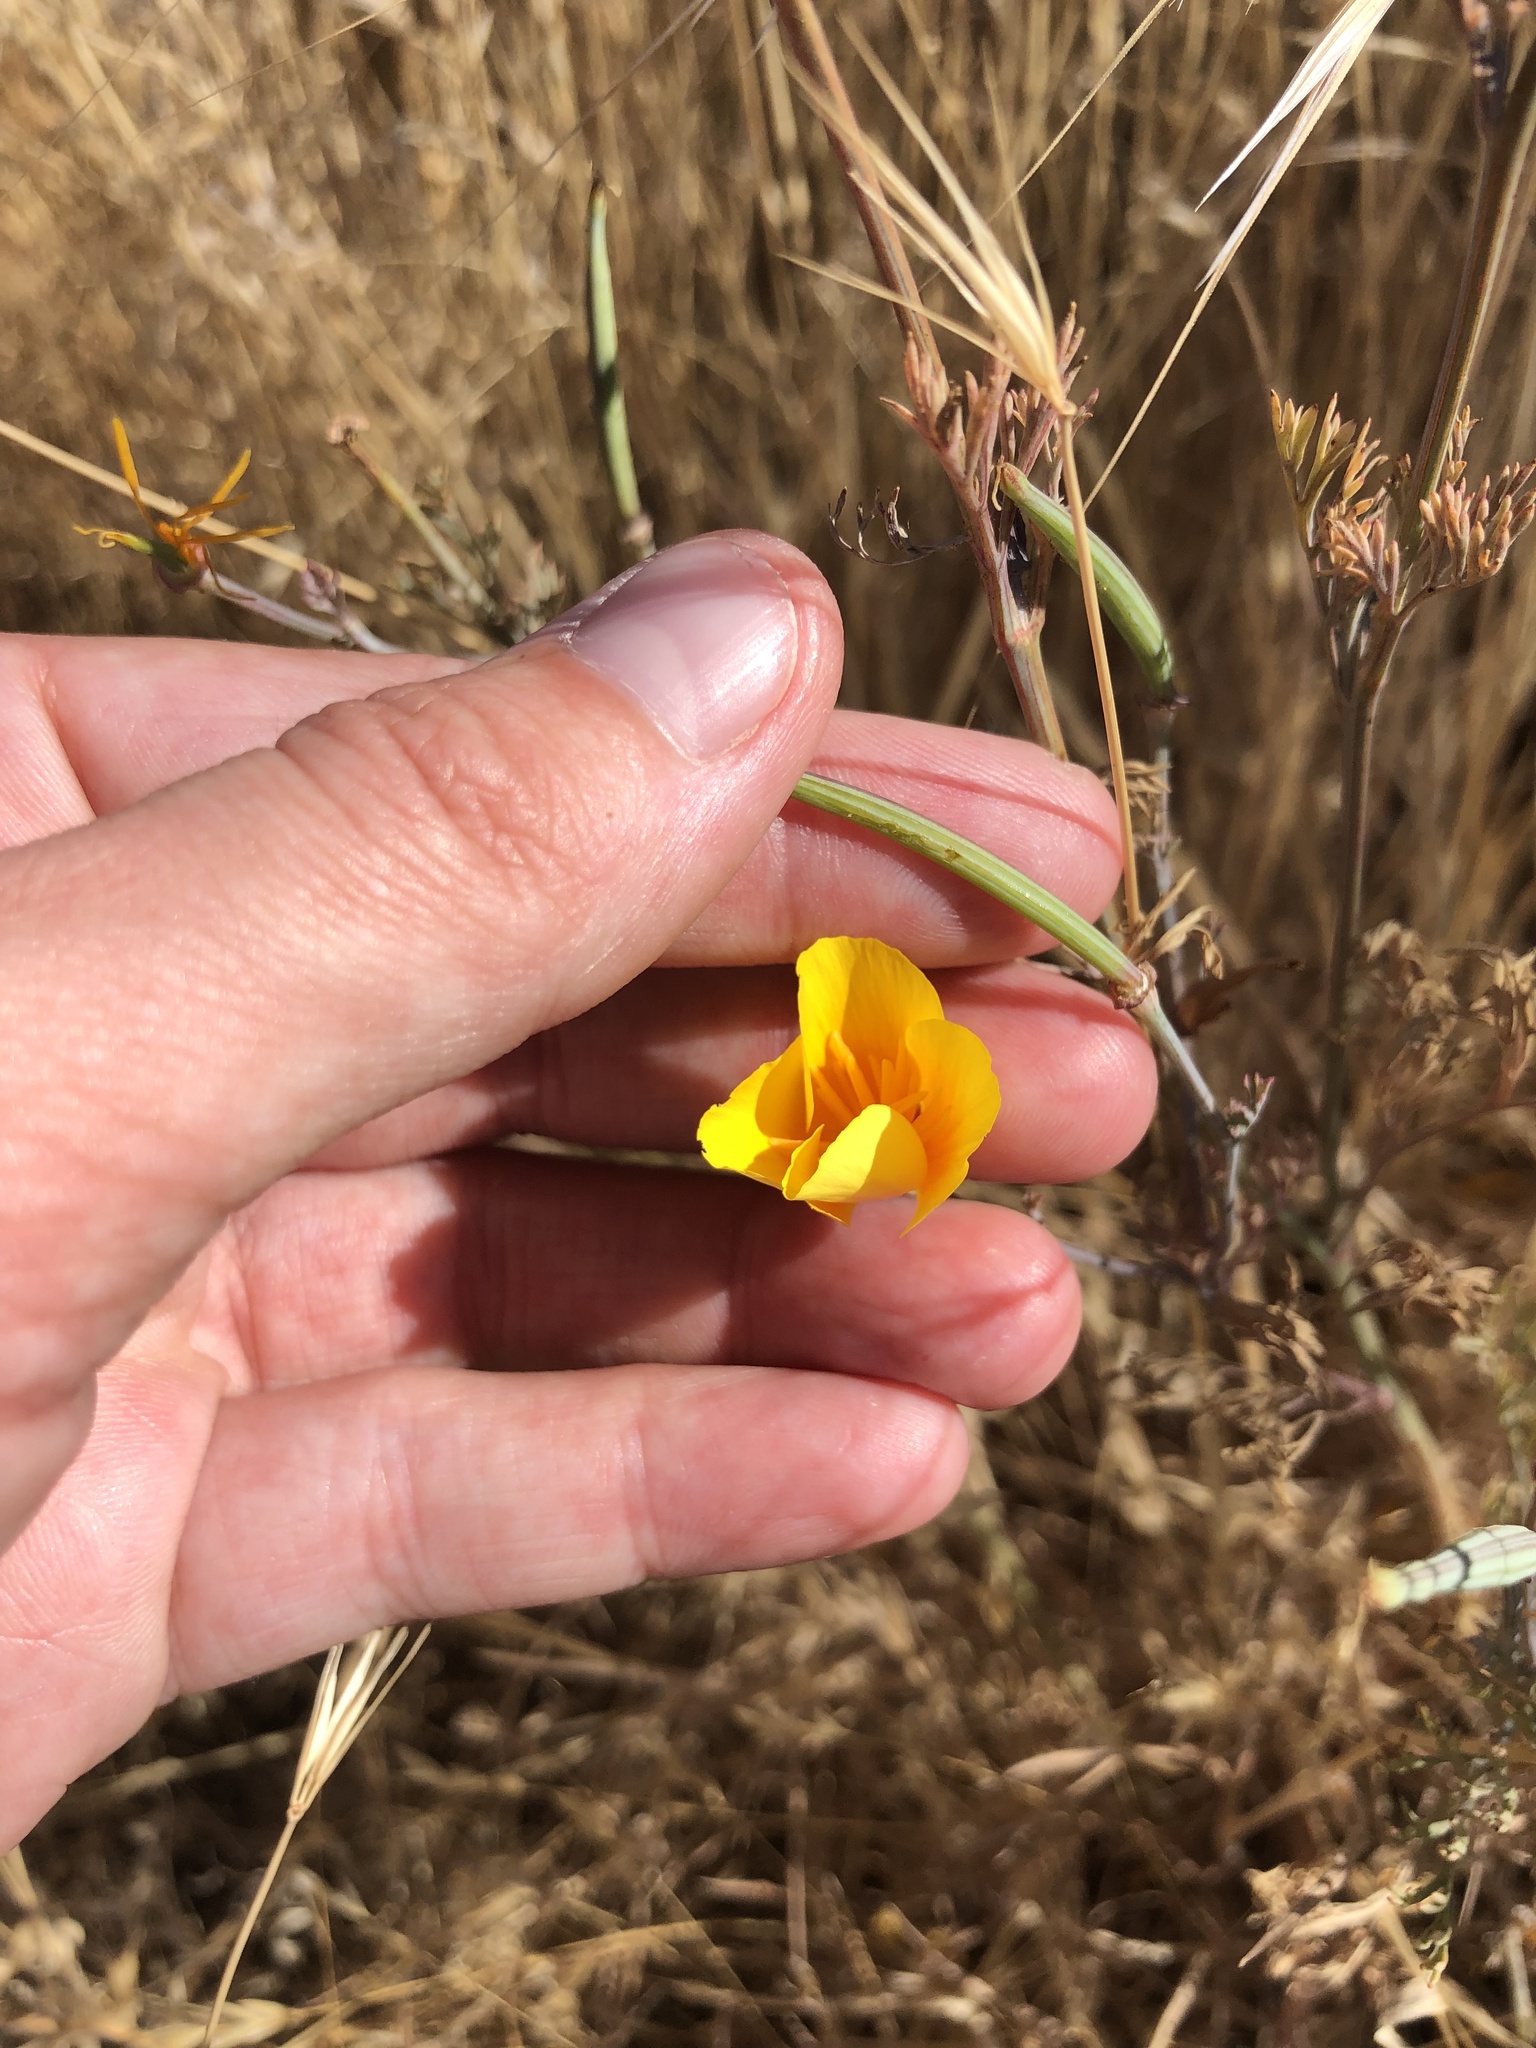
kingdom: Plantae
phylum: Tracheophyta
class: Magnoliopsida
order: Ranunculales
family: Papaveraceae
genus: Eschscholzia
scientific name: Eschscholzia californica
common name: California poppy
